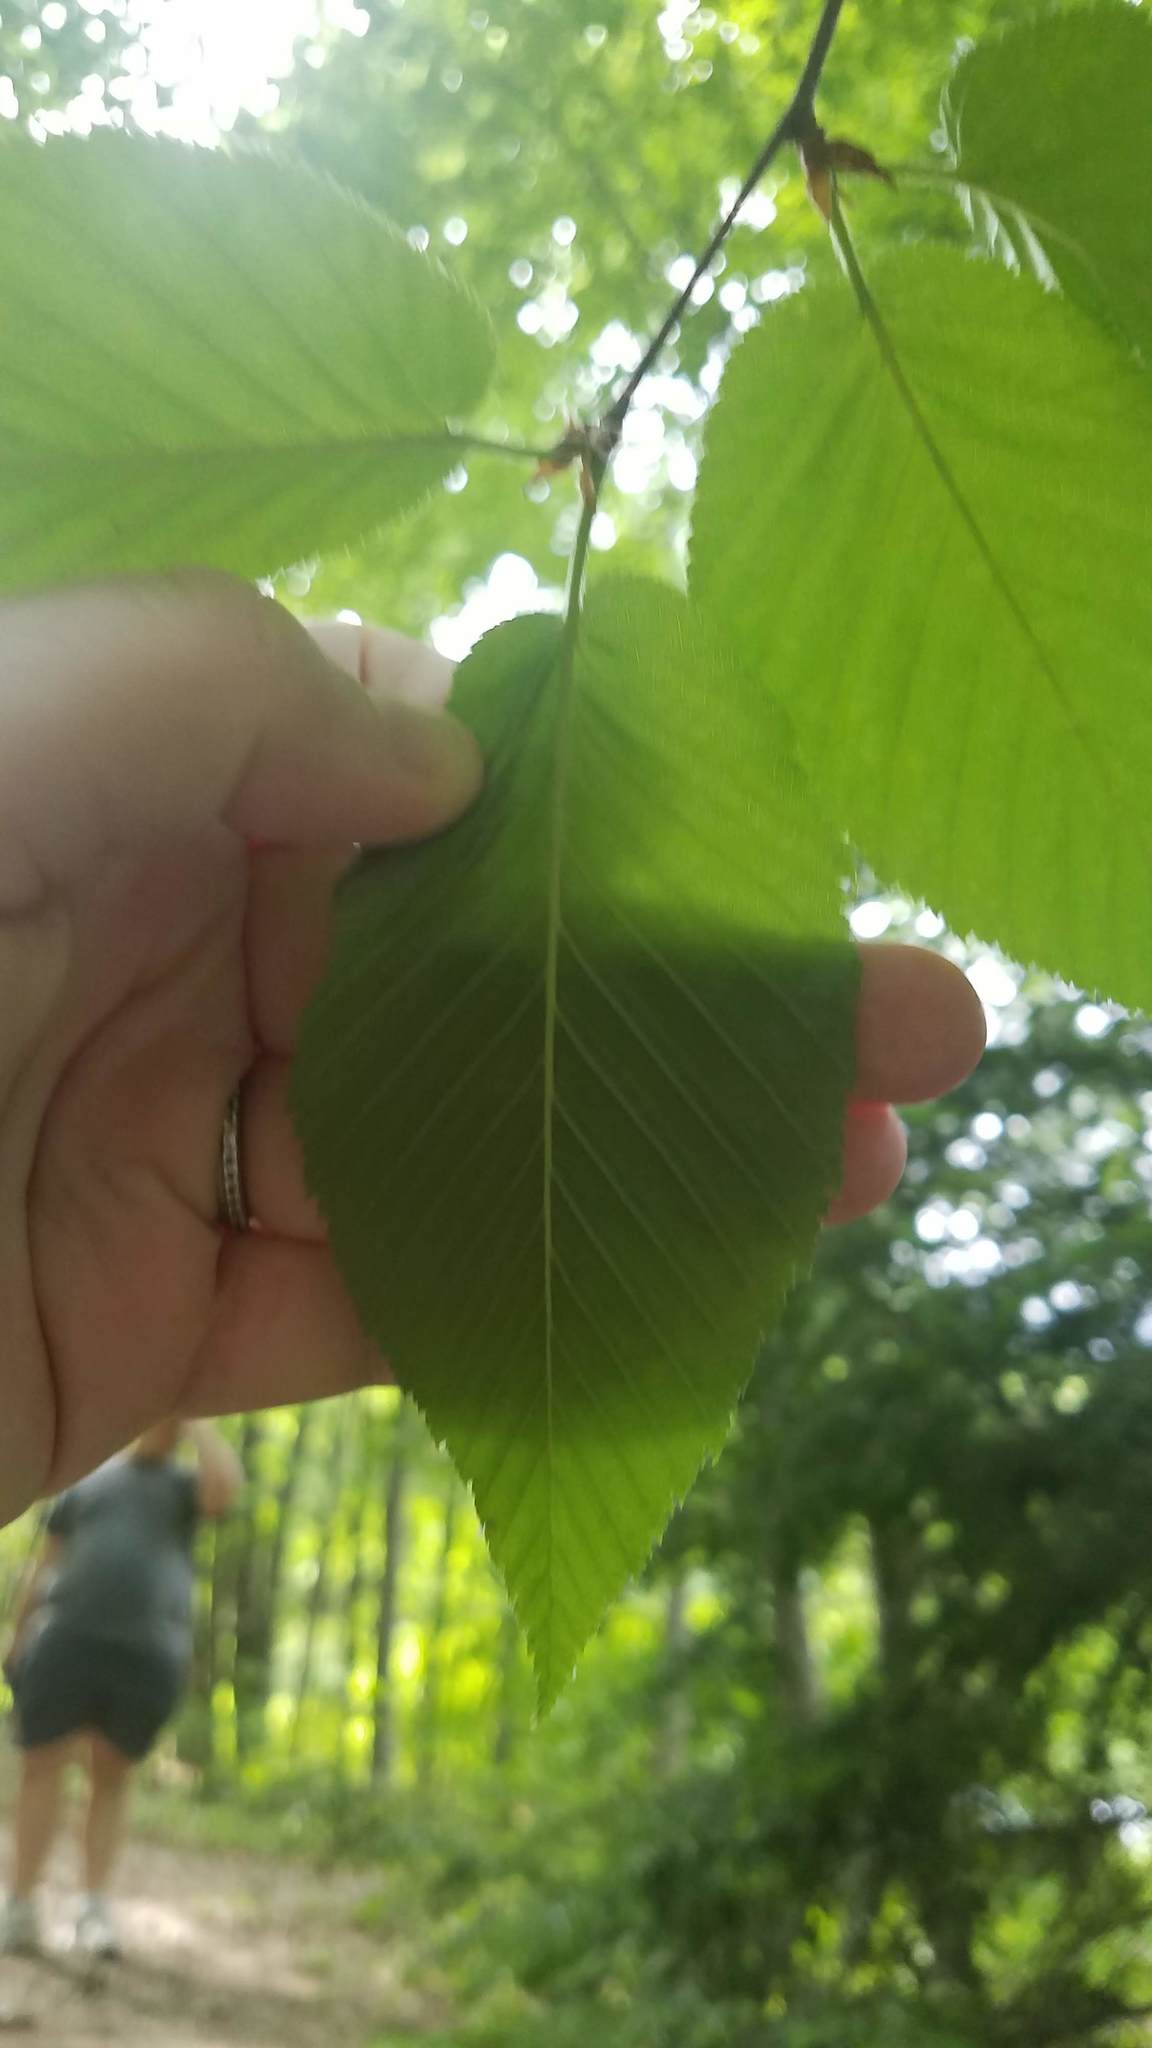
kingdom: Plantae
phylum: Tracheophyta
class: Magnoliopsida
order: Fagales
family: Betulaceae
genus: Betula
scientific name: Betula lenta
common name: Black birch
